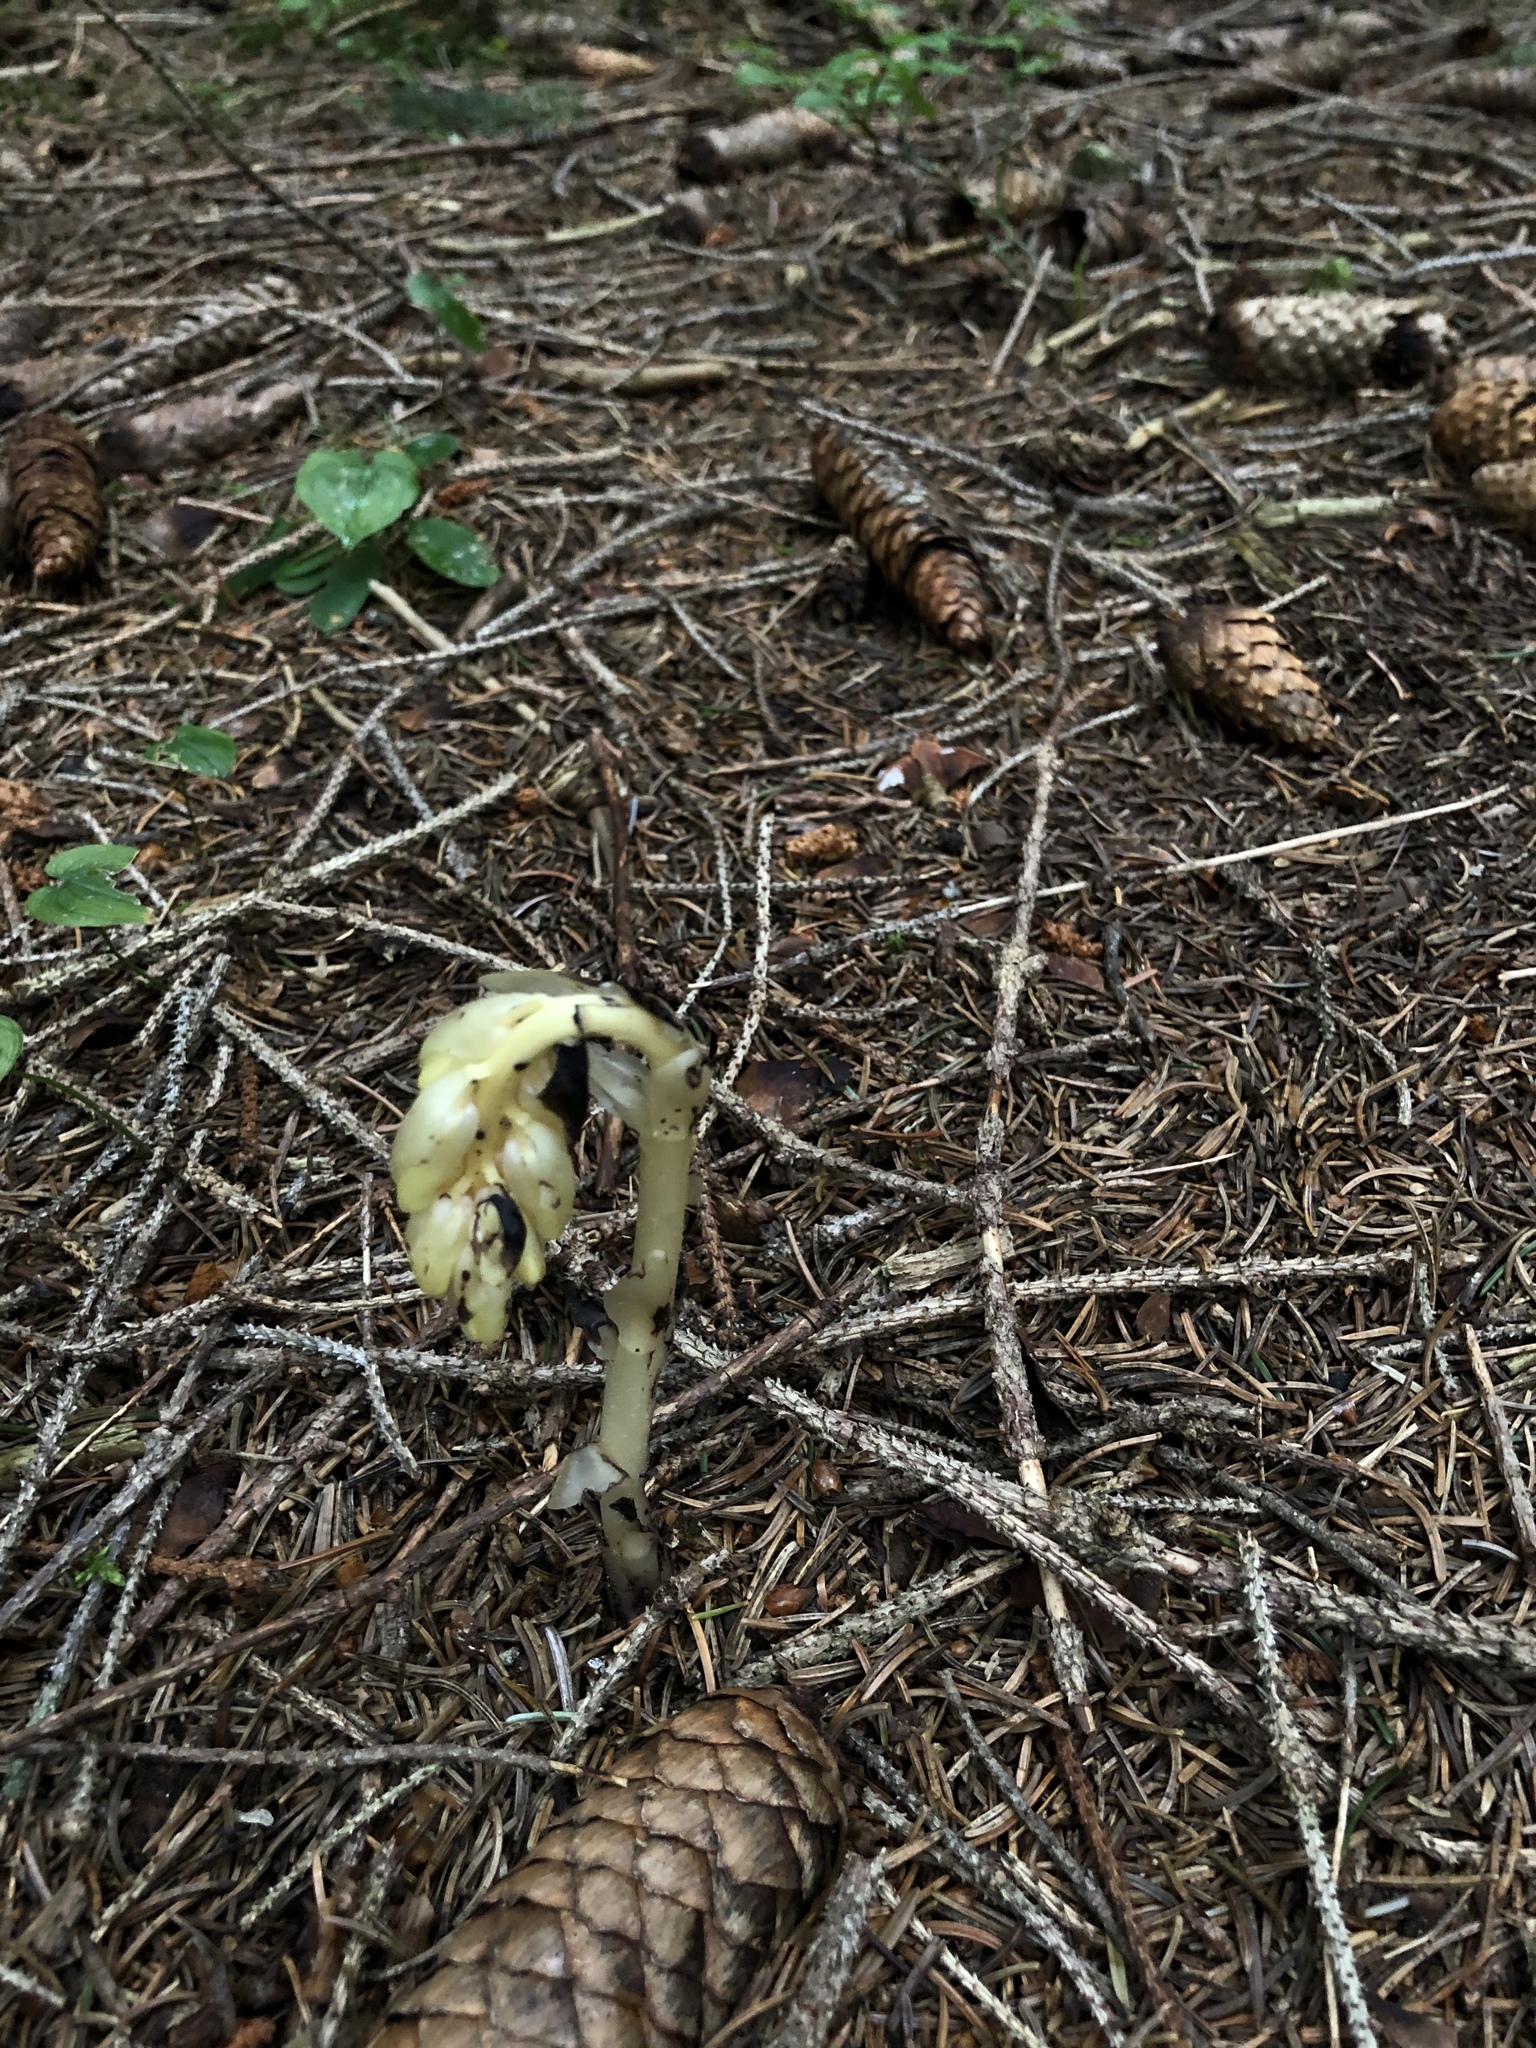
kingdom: Plantae
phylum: Tracheophyta
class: Magnoliopsida
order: Ericales
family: Ericaceae
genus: Hypopitys
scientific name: Hypopitys monotropa
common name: Yellow bird's-nest
